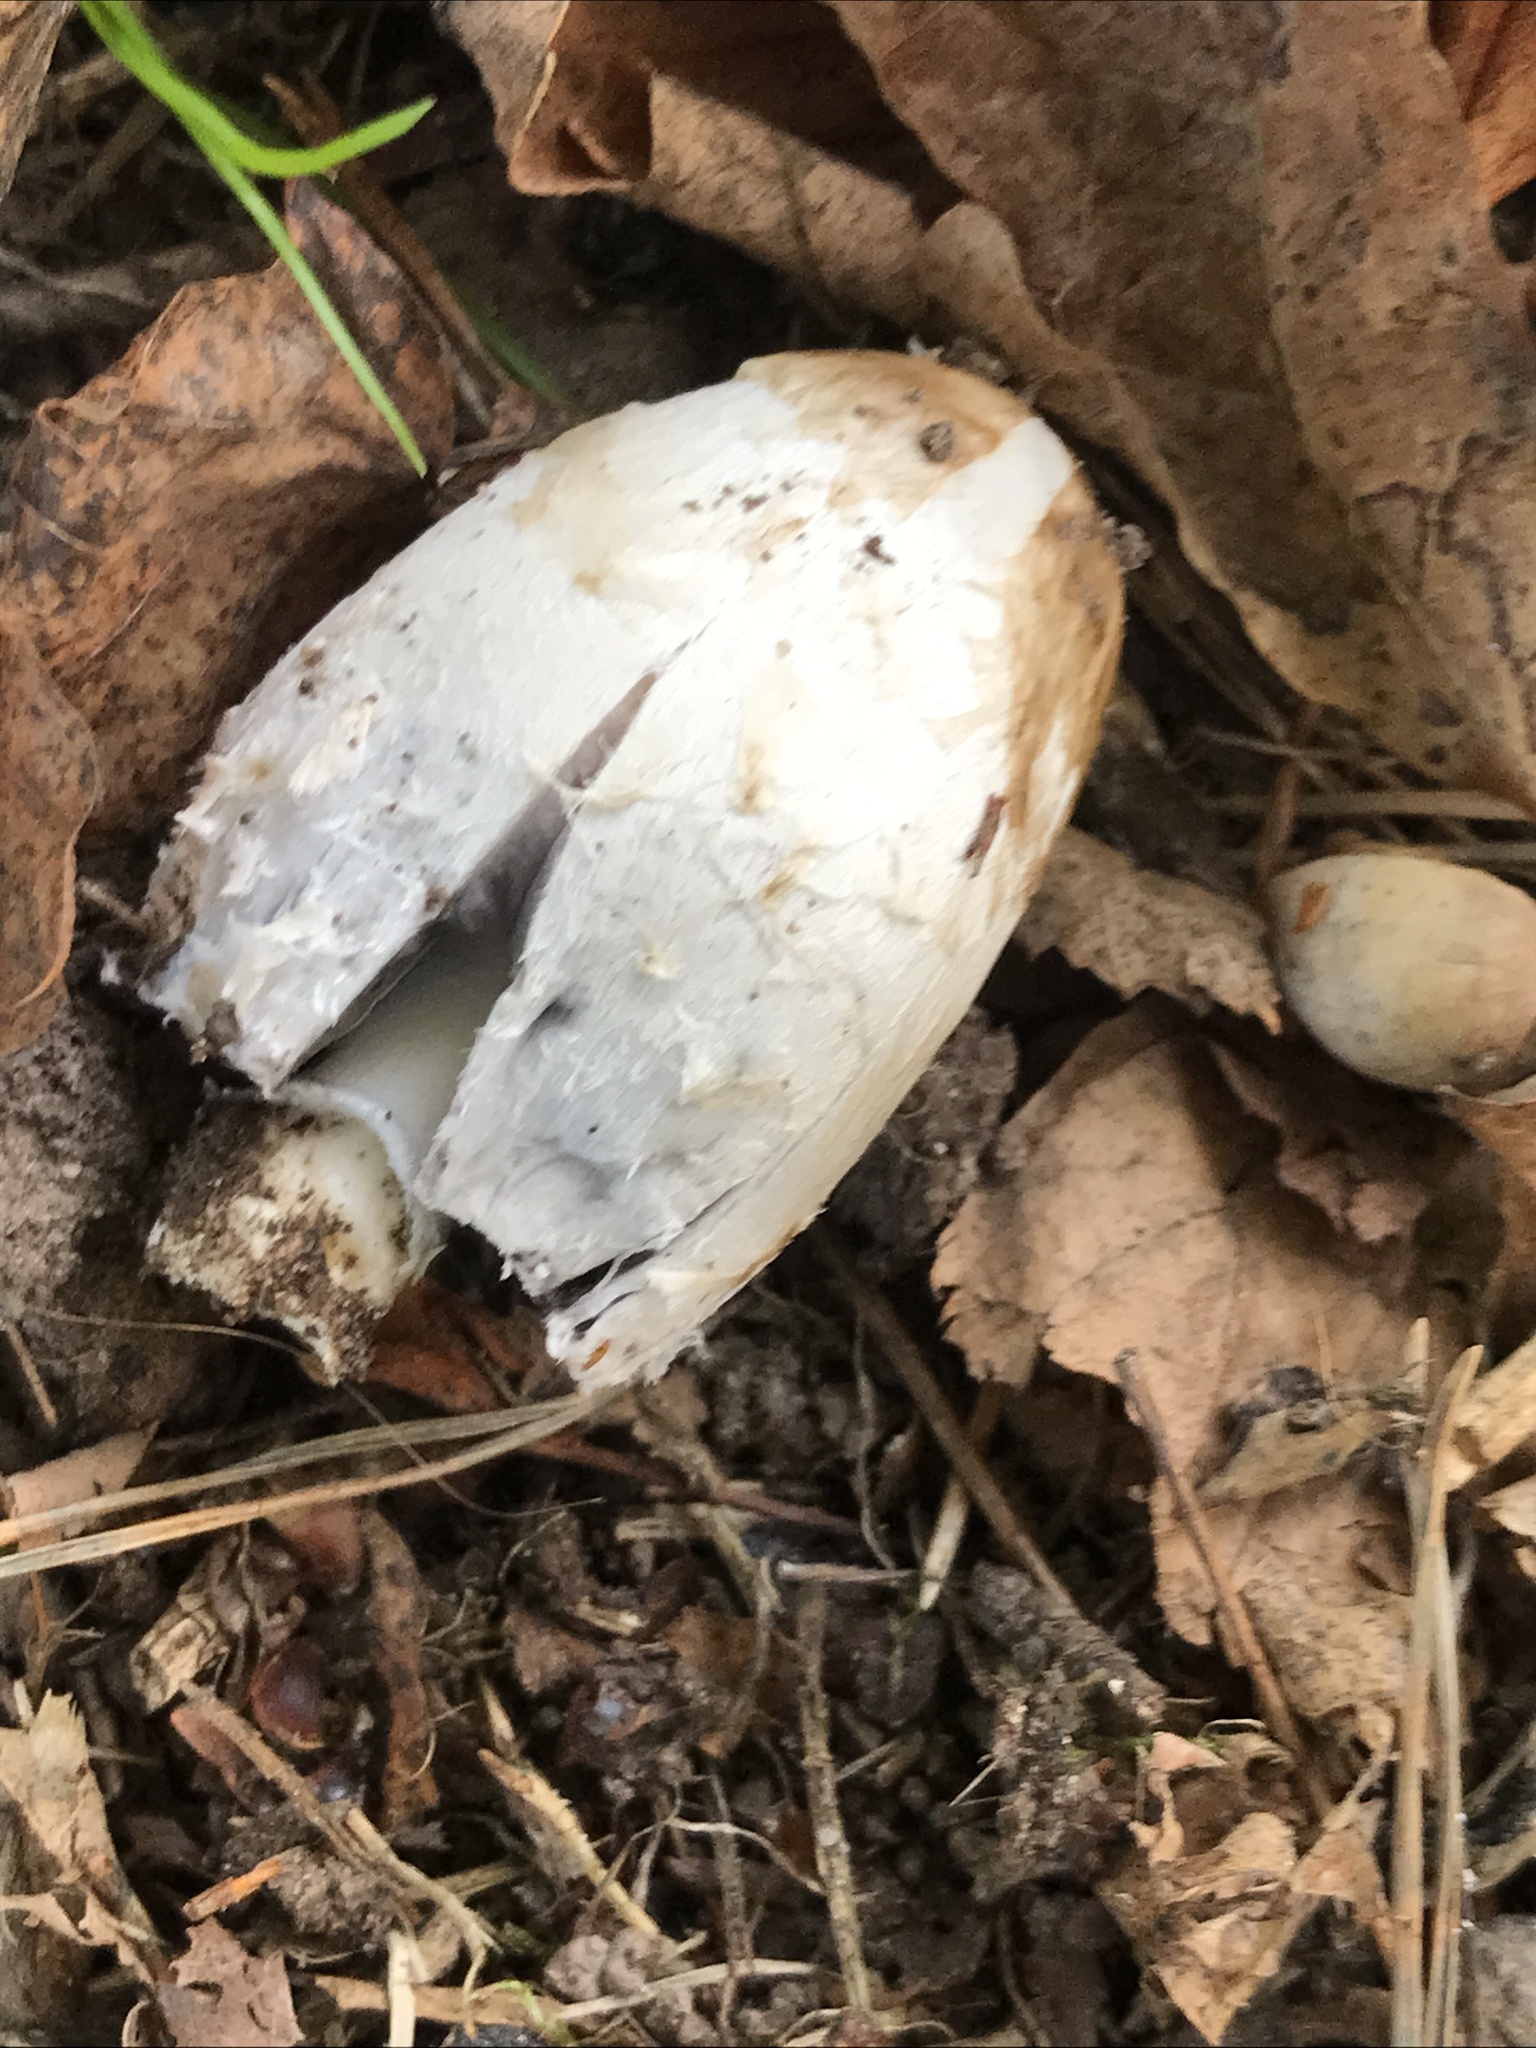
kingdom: Fungi
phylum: Basidiomycota
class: Agaricomycetes
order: Agaricales
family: Agaricaceae
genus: Coprinus
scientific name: Coprinus comatus
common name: Lawyer's wig
